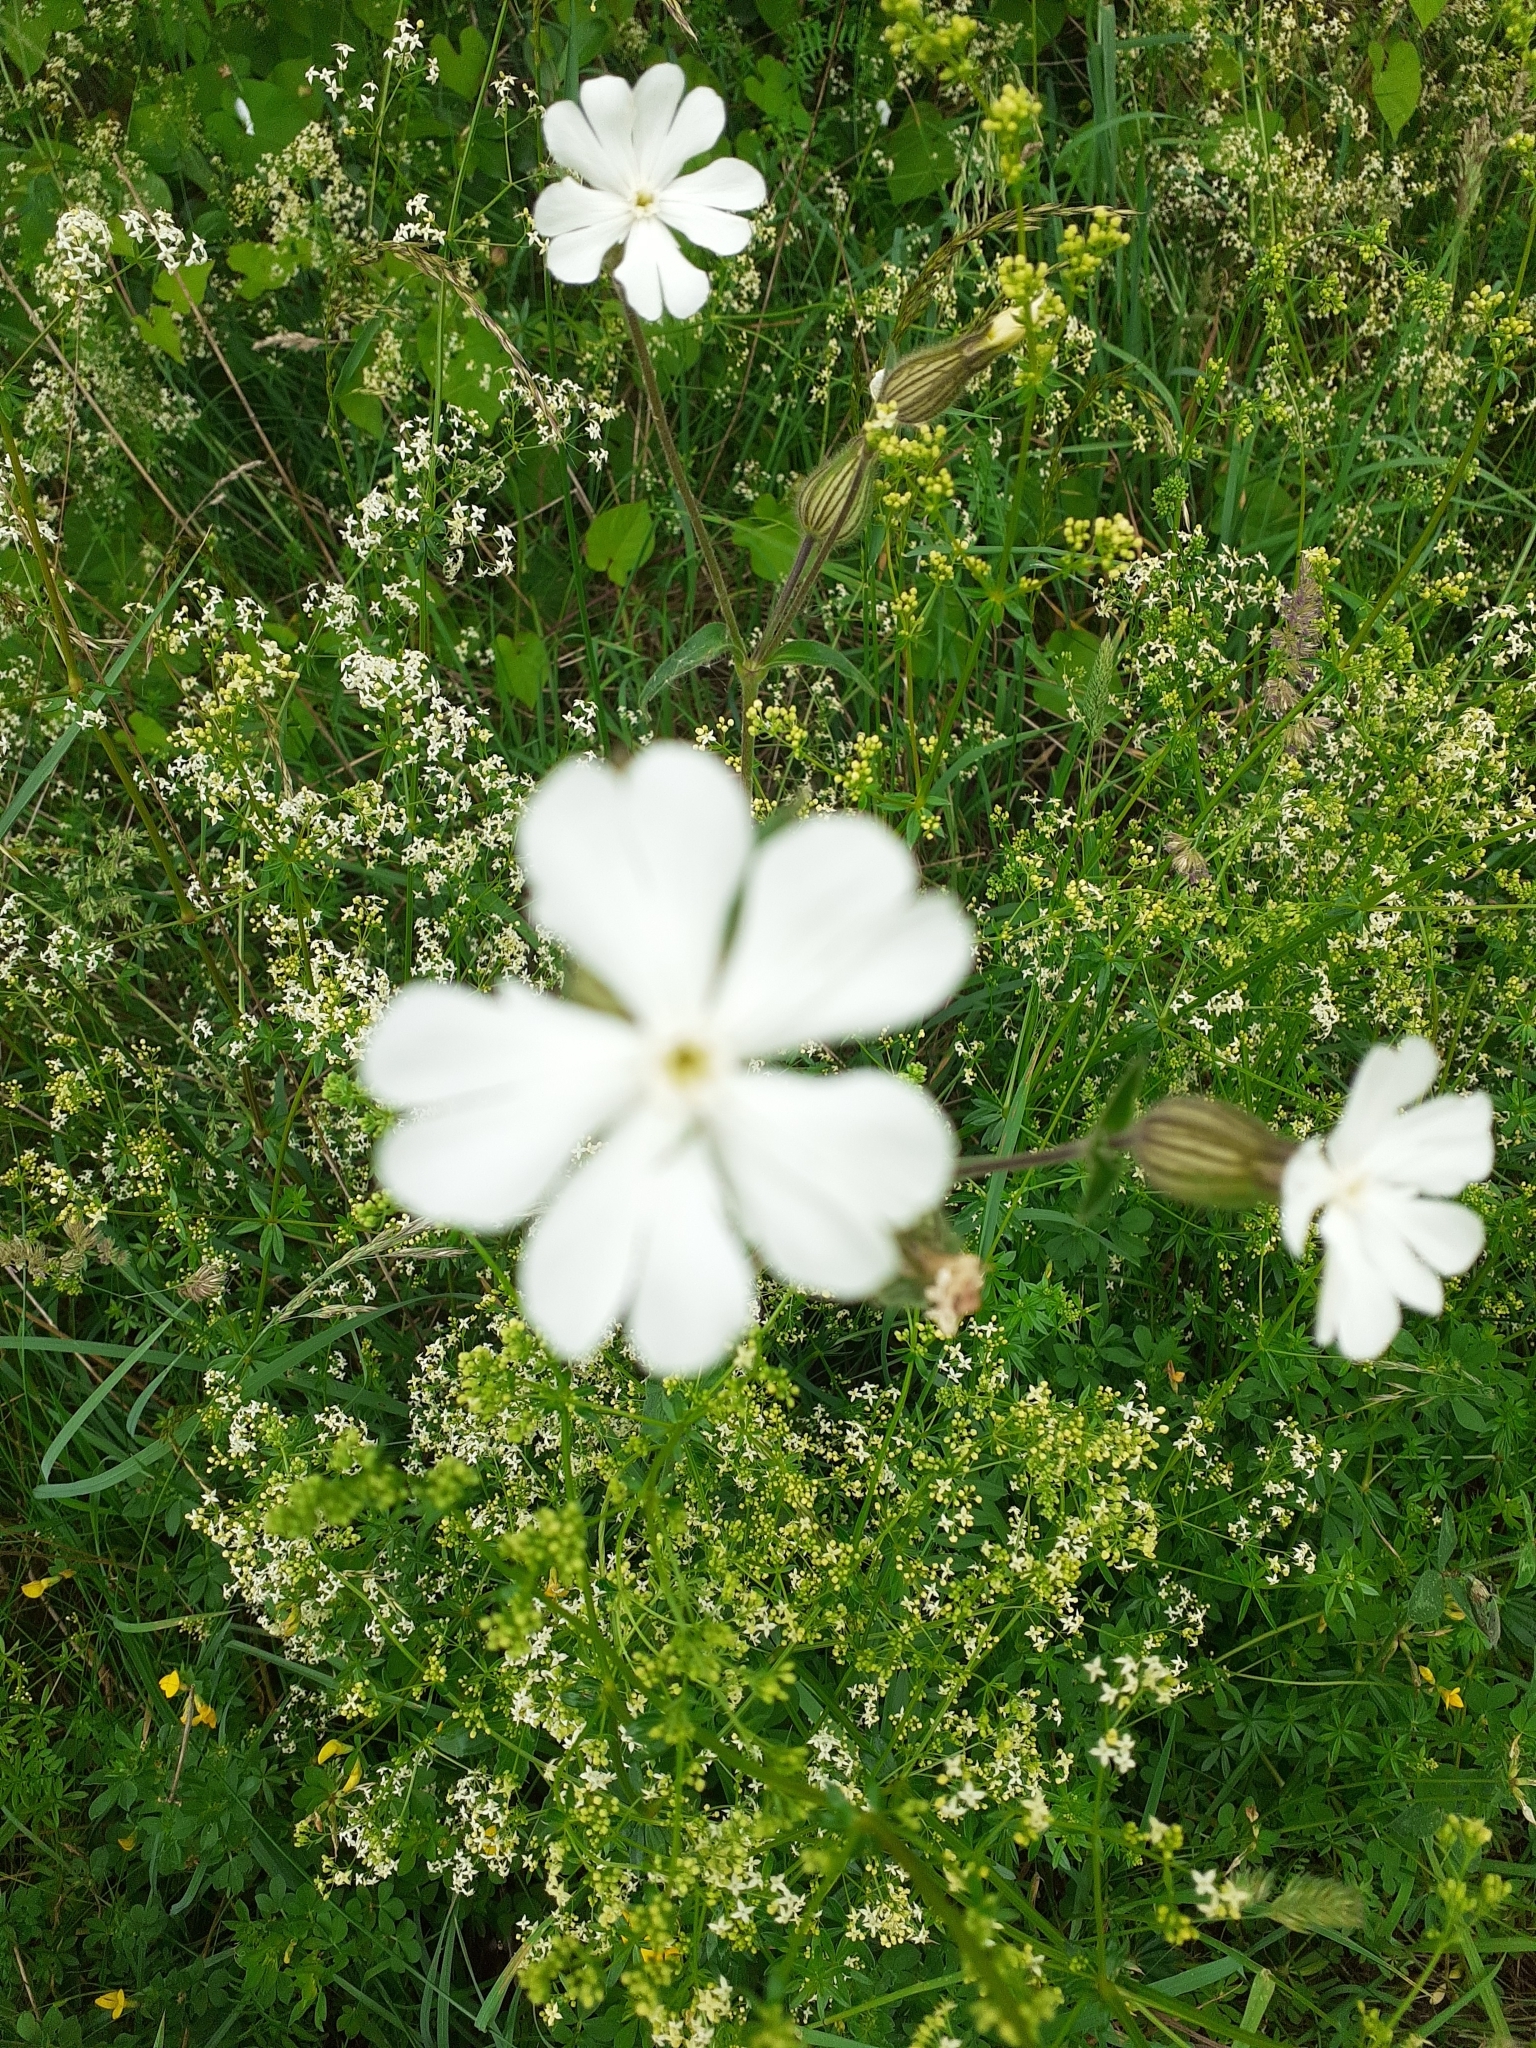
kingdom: Plantae
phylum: Tracheophyta
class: Magnoliopsida
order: Caryophyllales
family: Caryophyllaceae
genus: Silene
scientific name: Silene latifolia
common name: White campion
